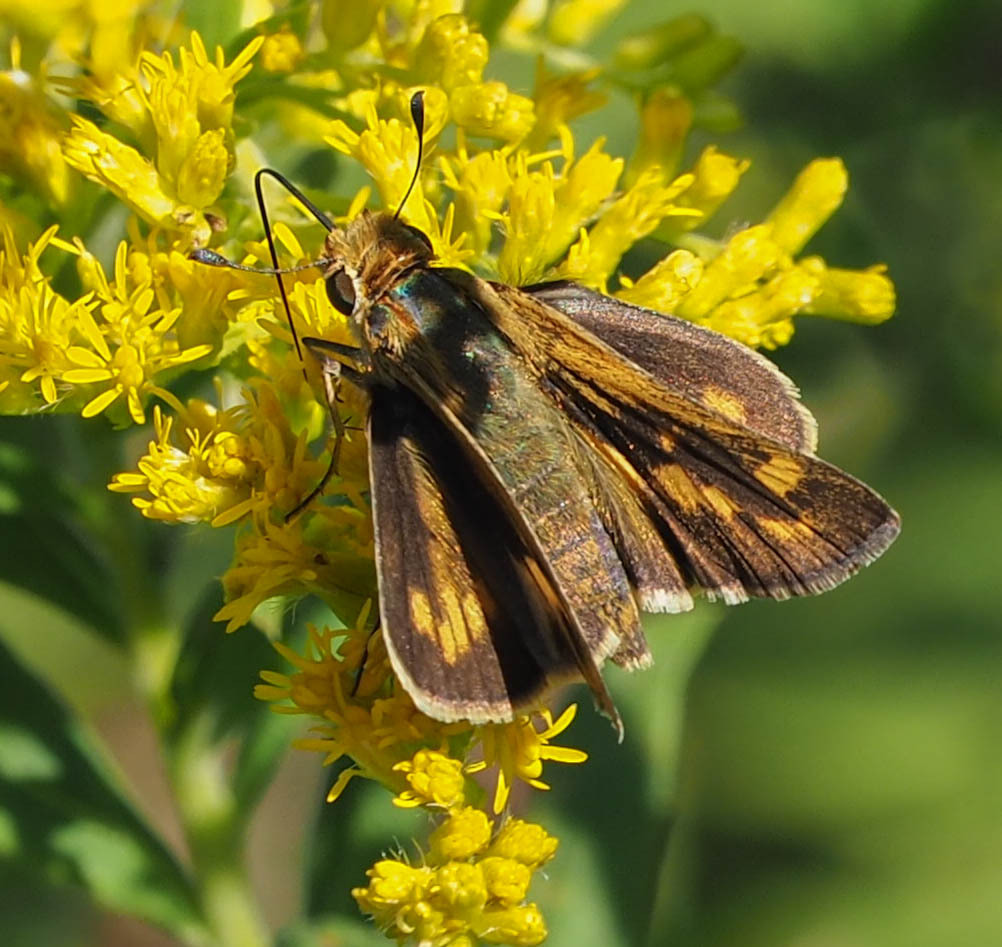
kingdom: Animalia
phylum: Arthropoda
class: Insecta
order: Lepidoptera
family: Hesperiidae
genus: Hylephila
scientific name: Hylephila phyleus
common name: Fiery skipper
